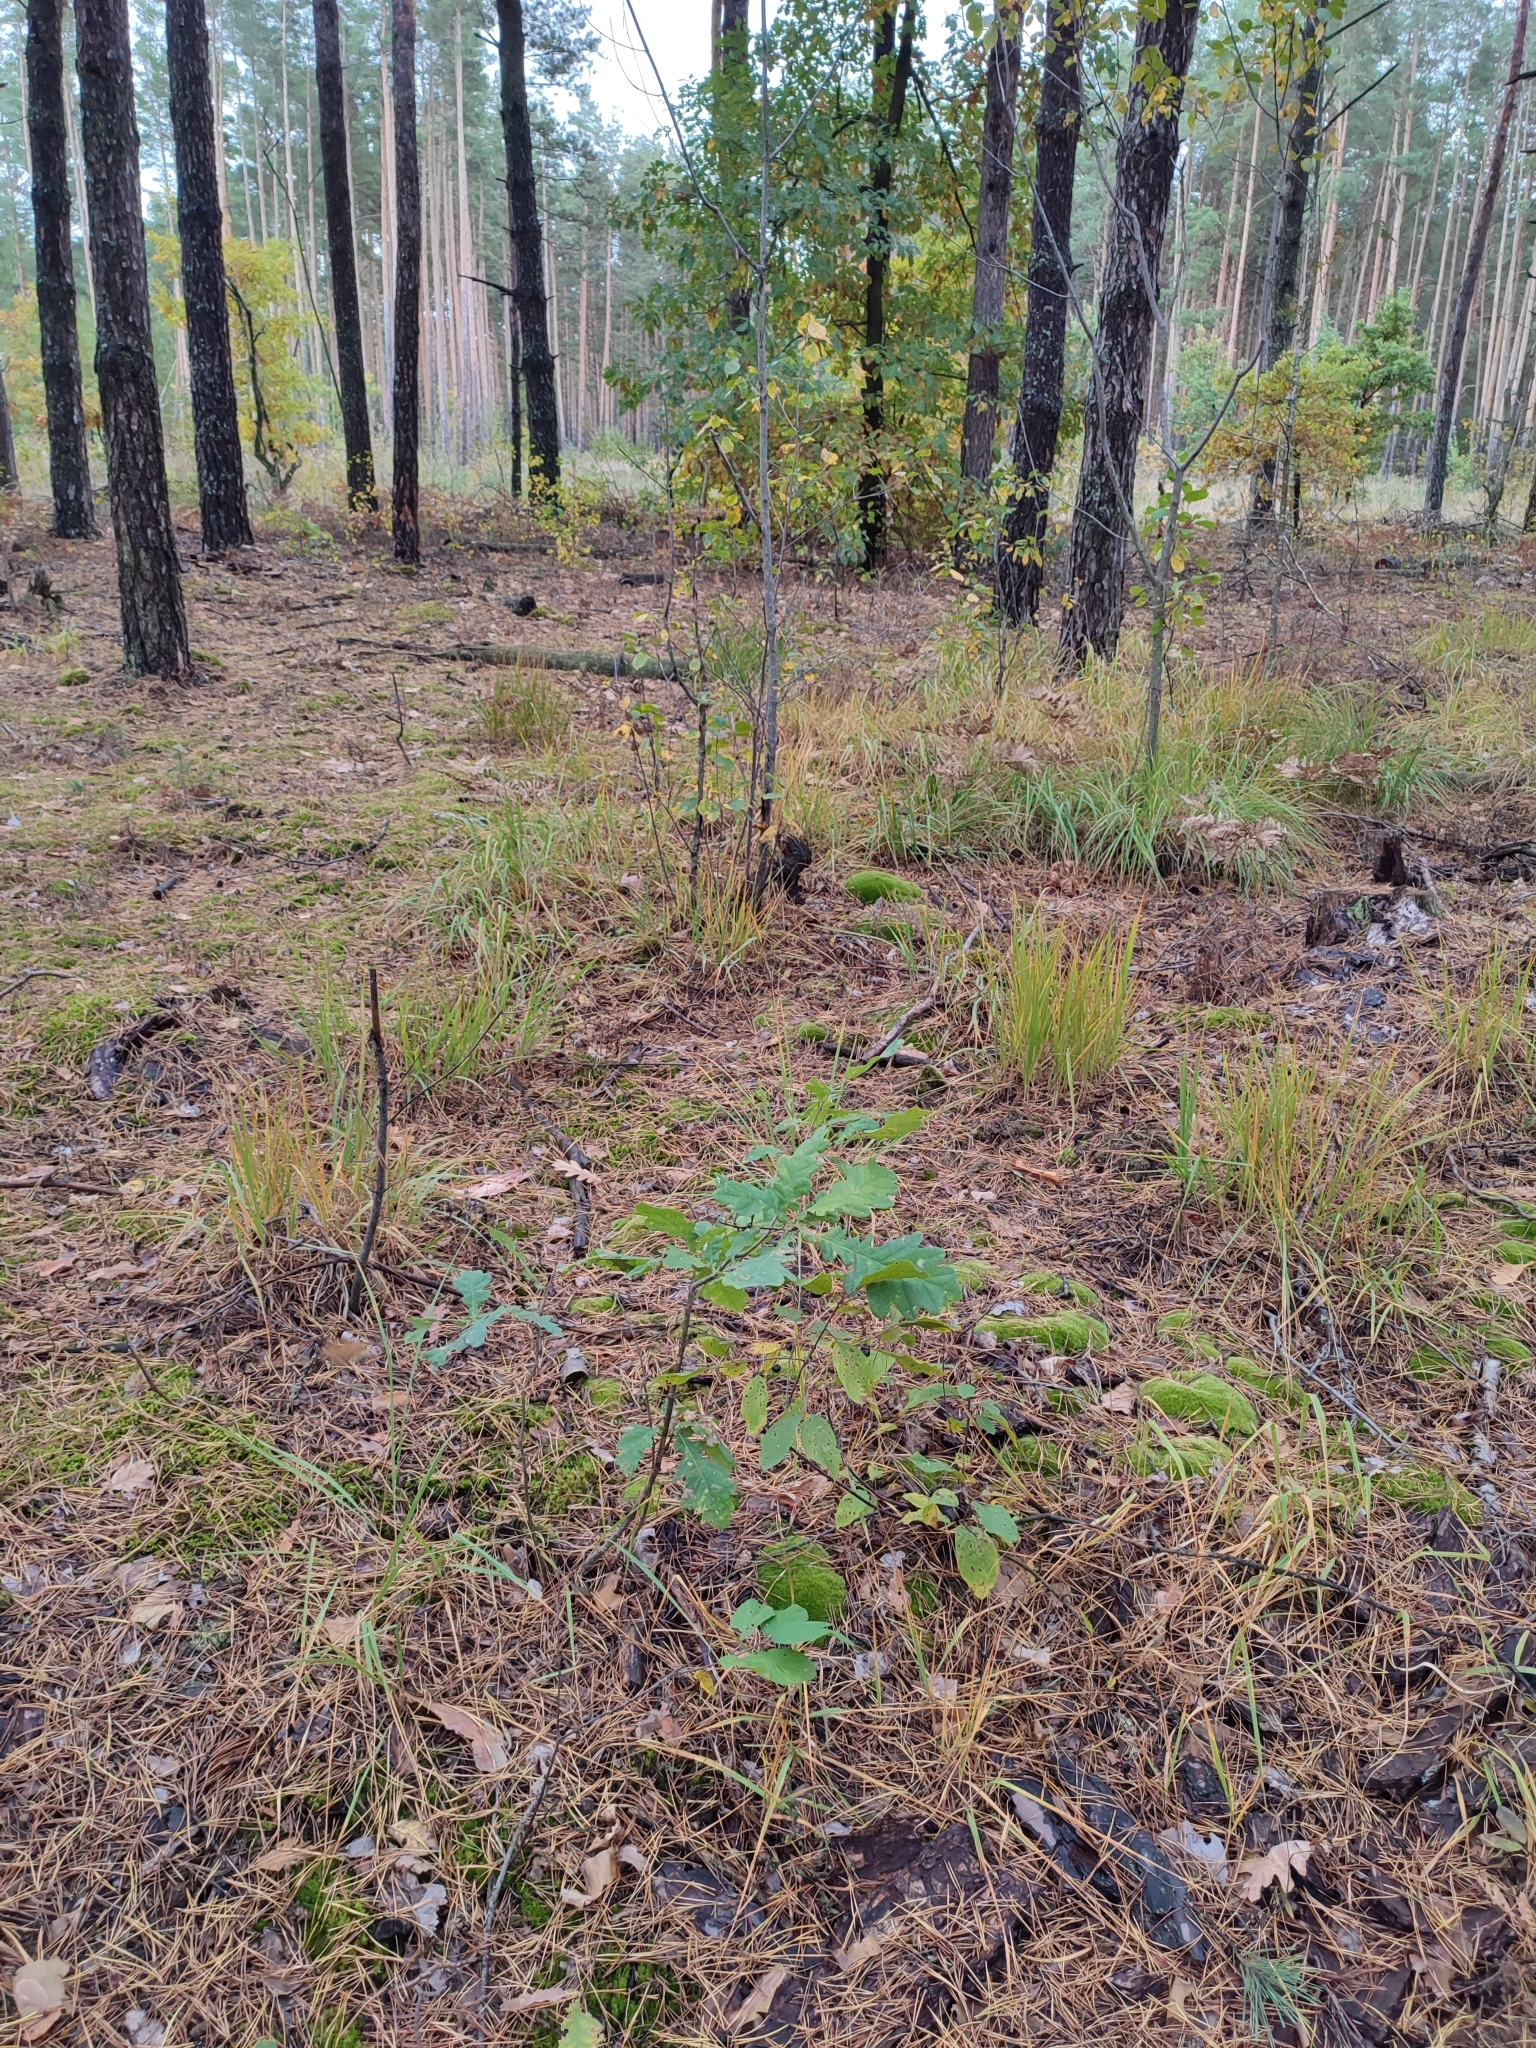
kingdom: Plantae
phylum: Tracheophyta
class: Magnoliopsida
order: Fagales
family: Fagaceae
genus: Quercus
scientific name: Quercus robur
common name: Pedunculate oak
